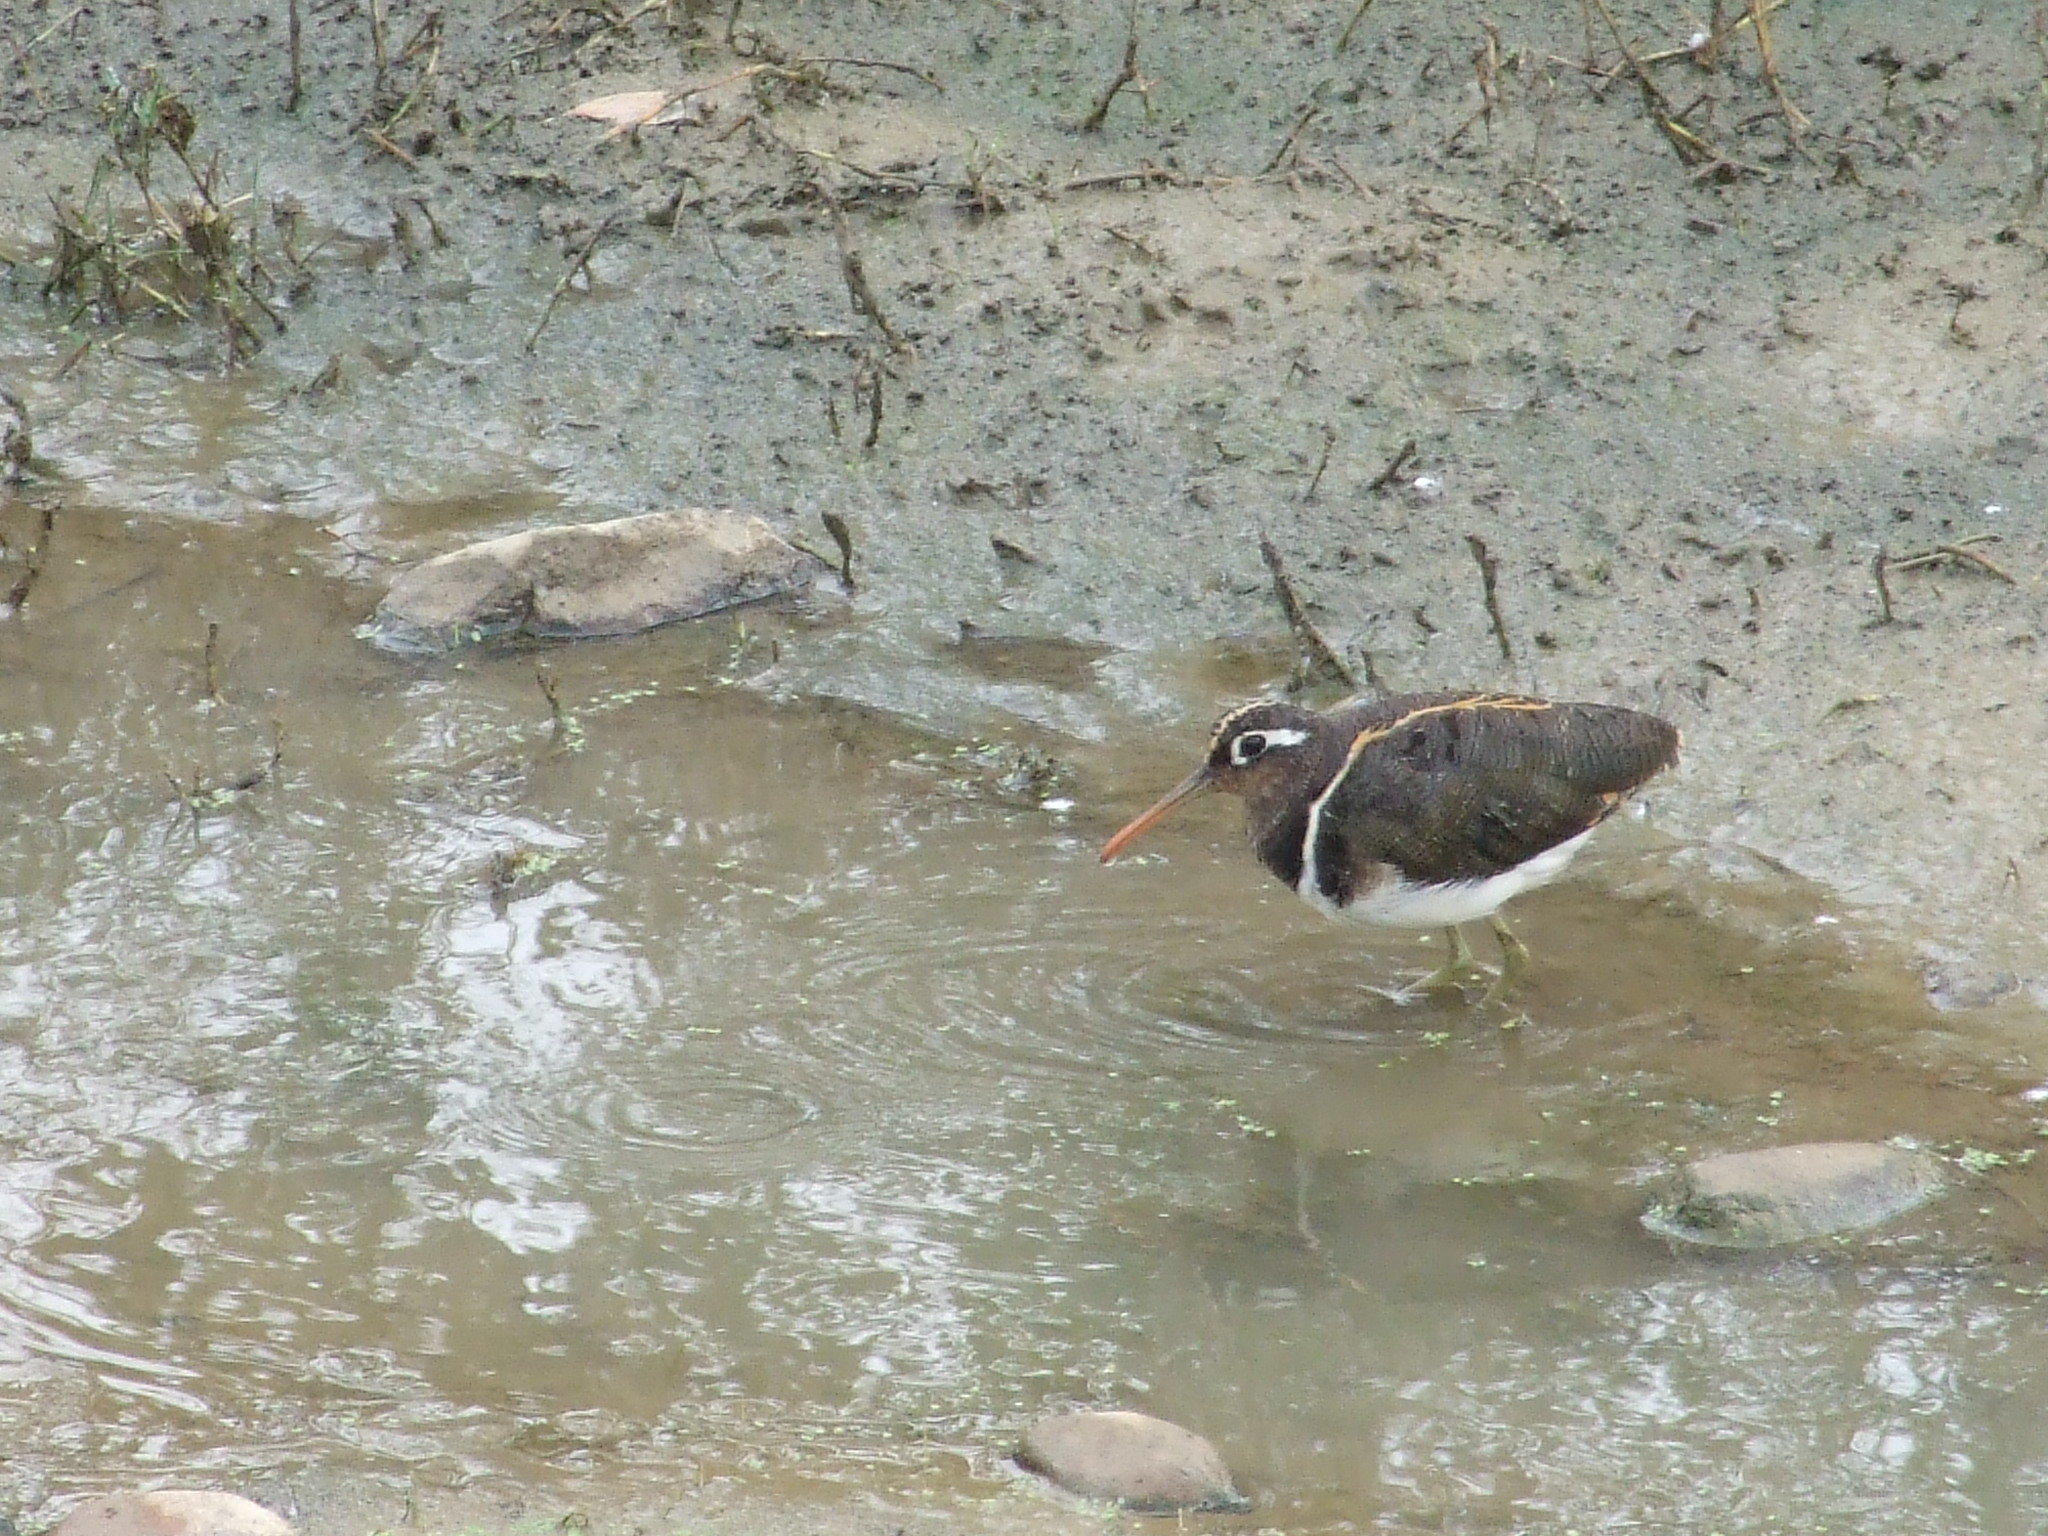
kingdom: Animalia
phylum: Chordata
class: Aves
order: Charadriiformes
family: Rostratulidae
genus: Rostratula
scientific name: Rostratula benghalensis
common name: Greater painted-snipe
